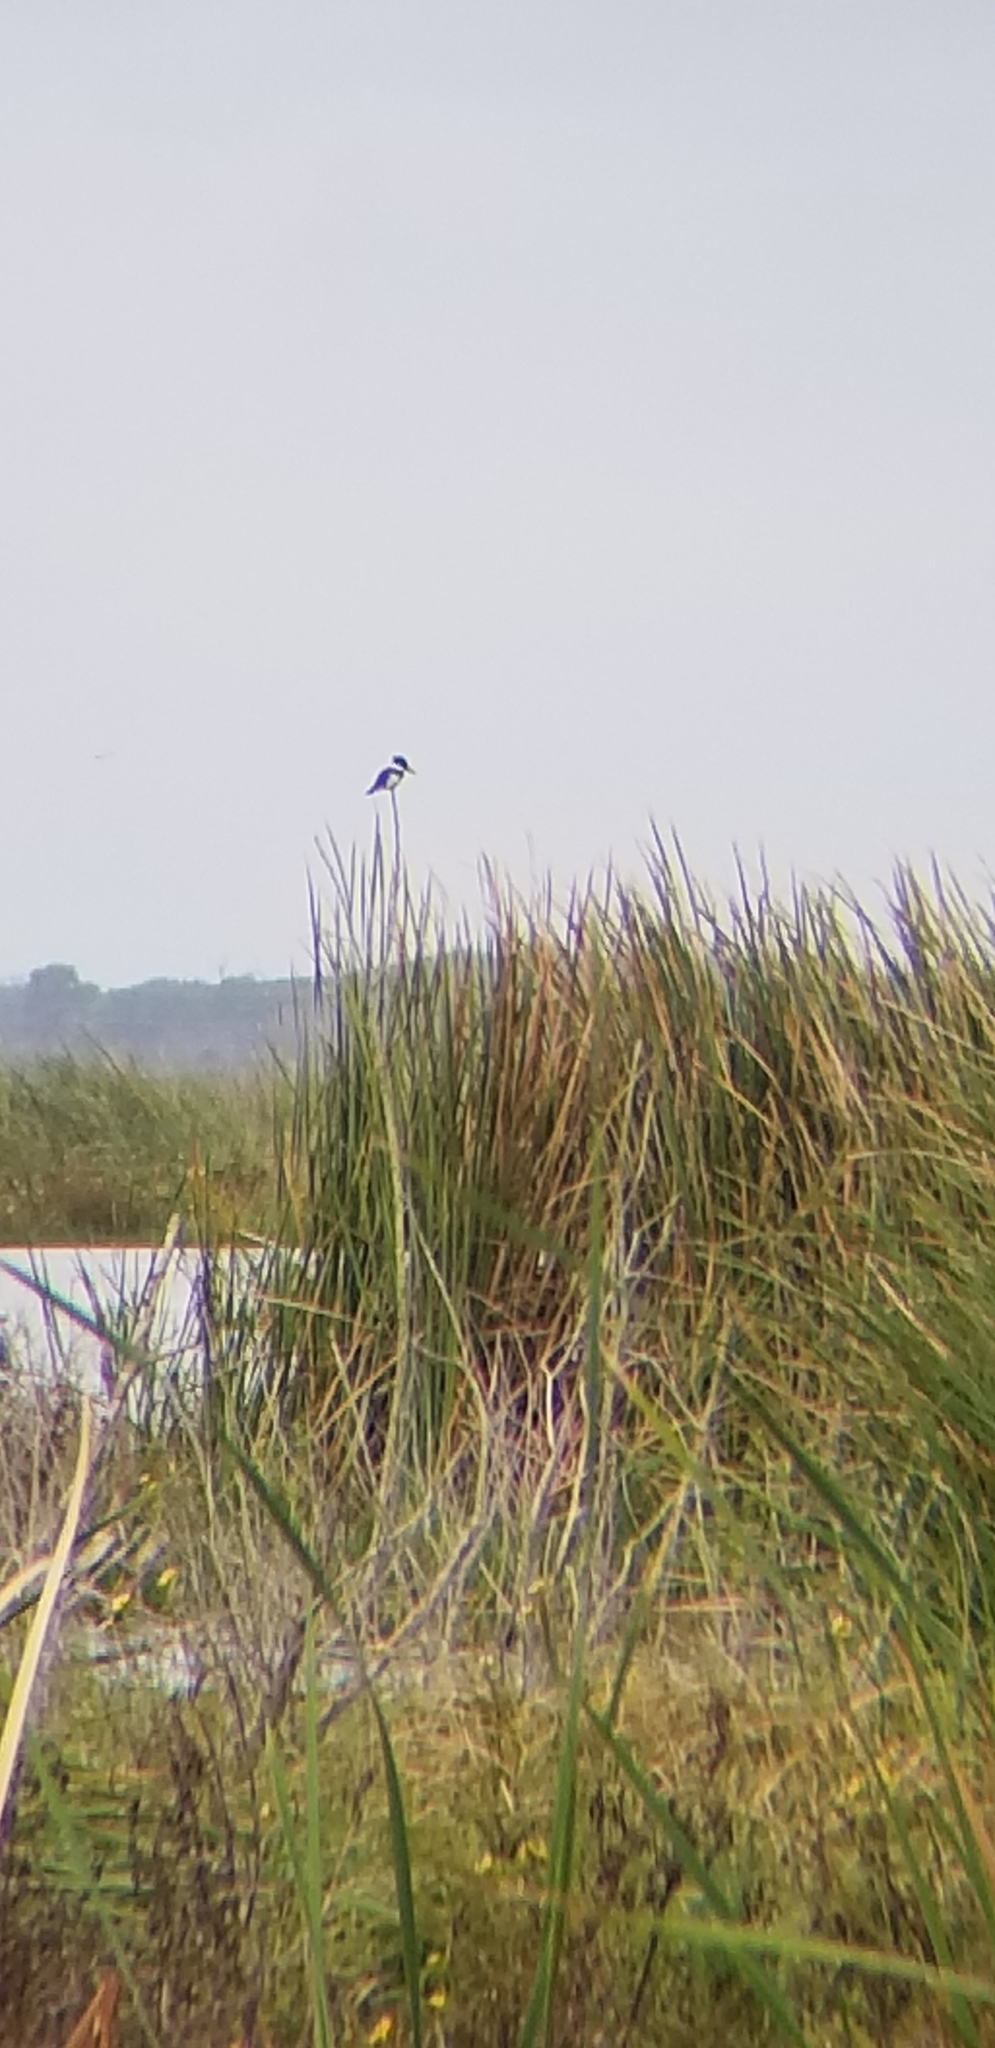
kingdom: Animalia
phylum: Chordata
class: Aves
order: Coraciiformes
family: Alcedinidae
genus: Megaceryle
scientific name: Megaceryle alcyon
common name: Belted kingfisher
